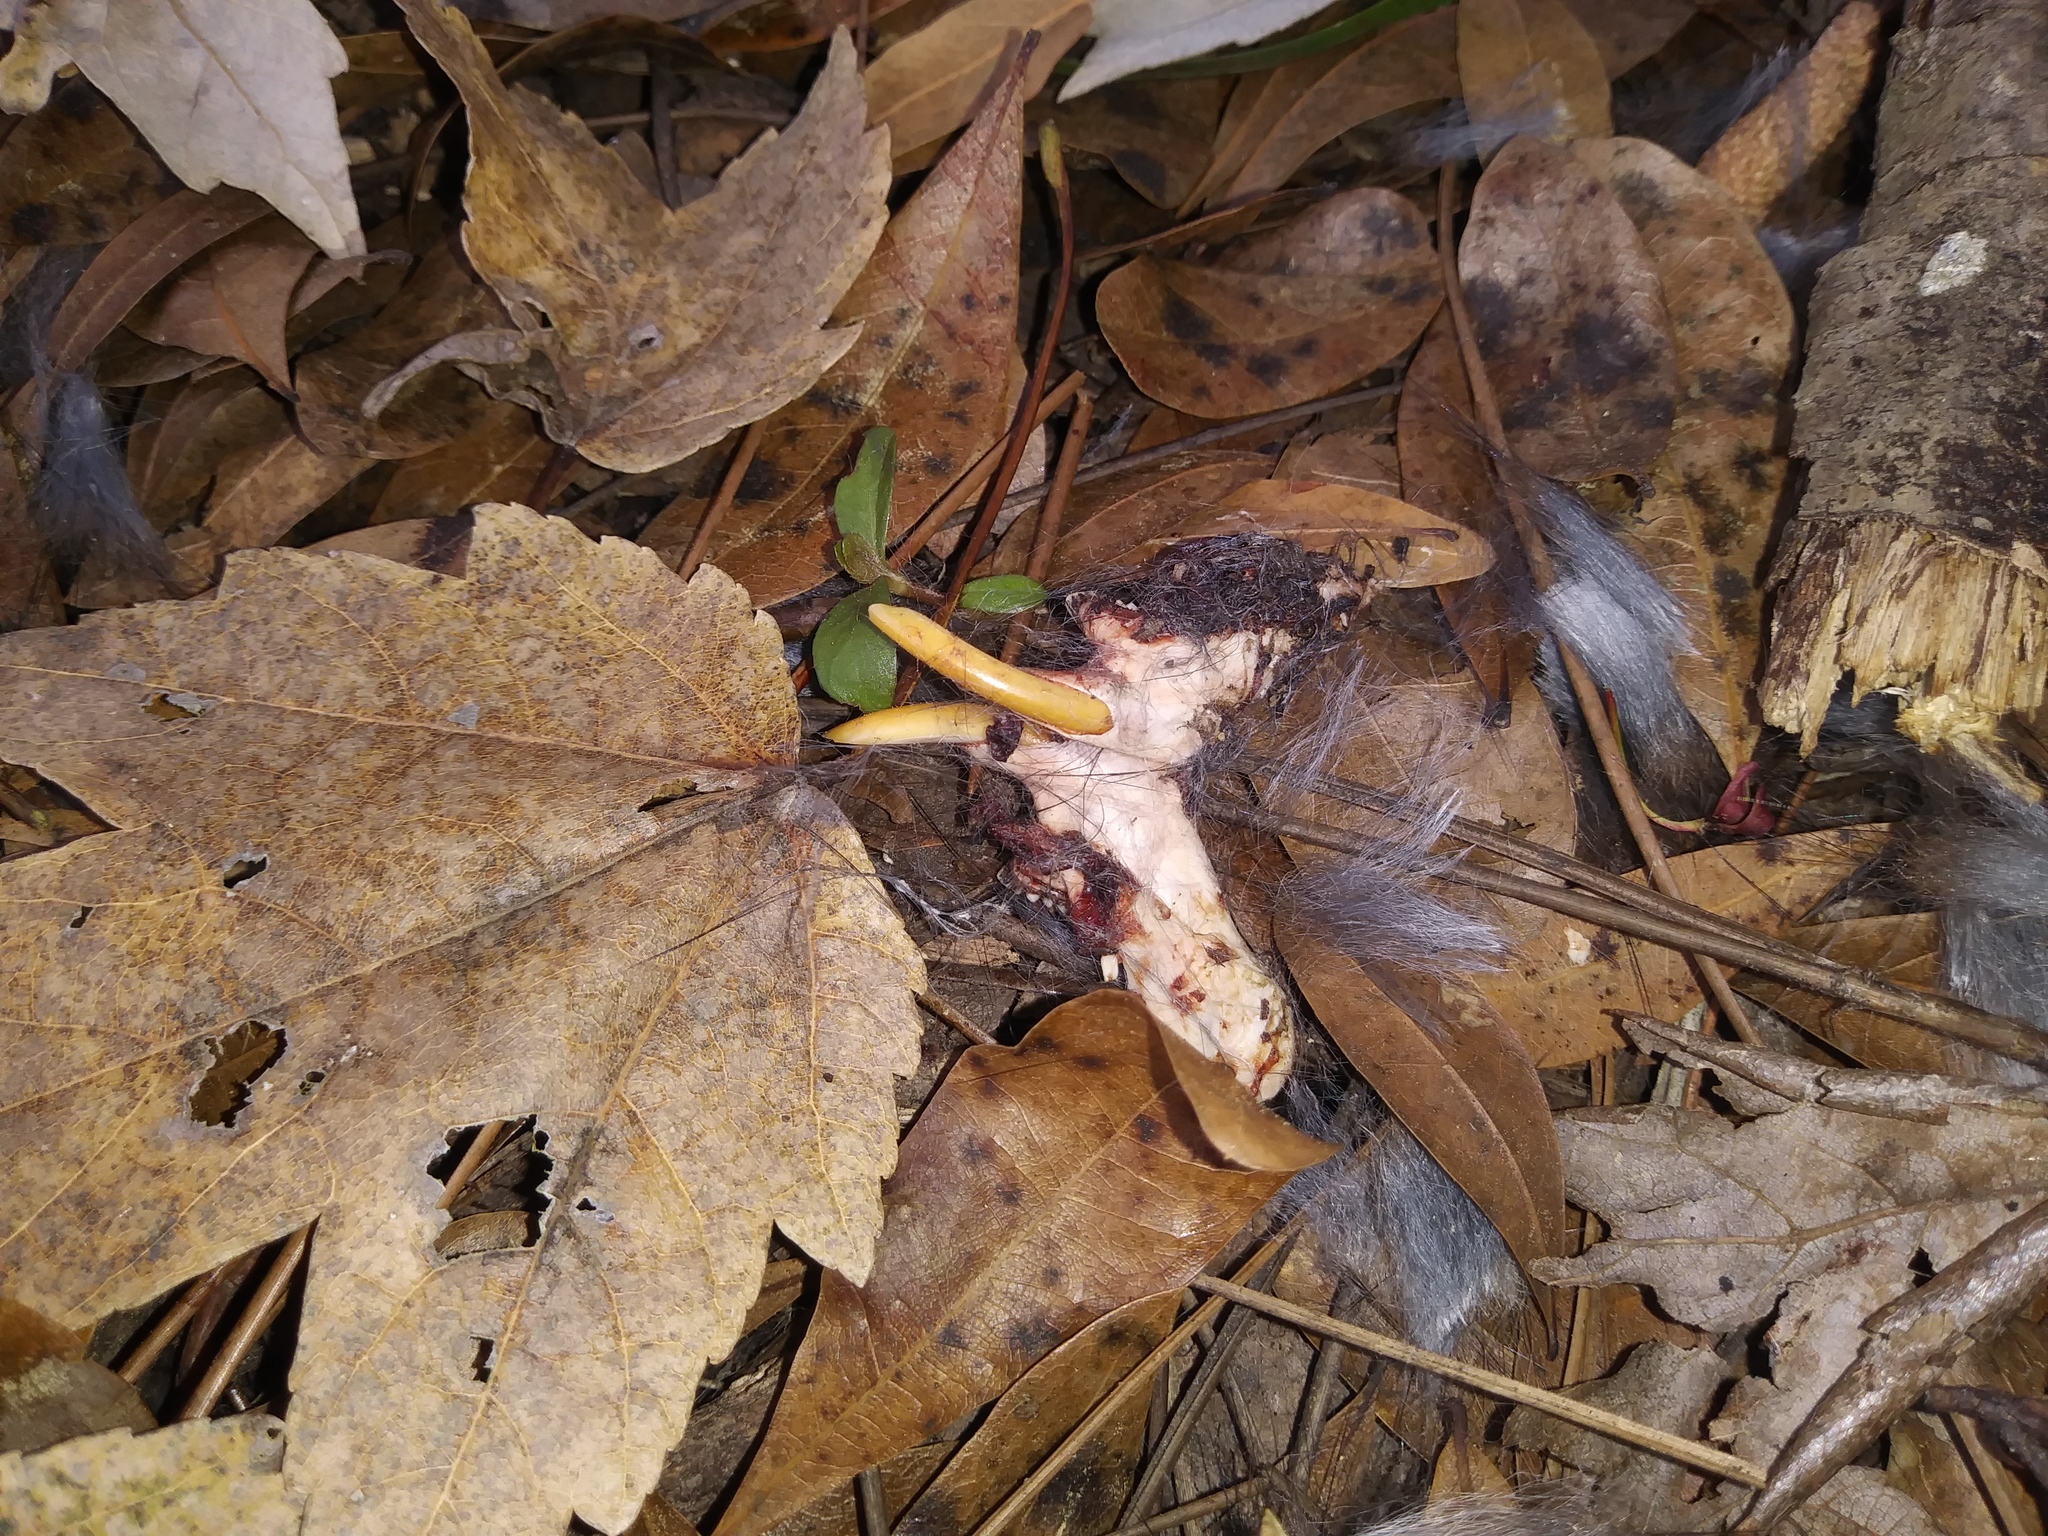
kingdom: Animalia
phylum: Chordata
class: Mammalia
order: Rodentia
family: Cricetidae
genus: Neofiber
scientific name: Neofiber alleni
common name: Round-tailed muskrat
